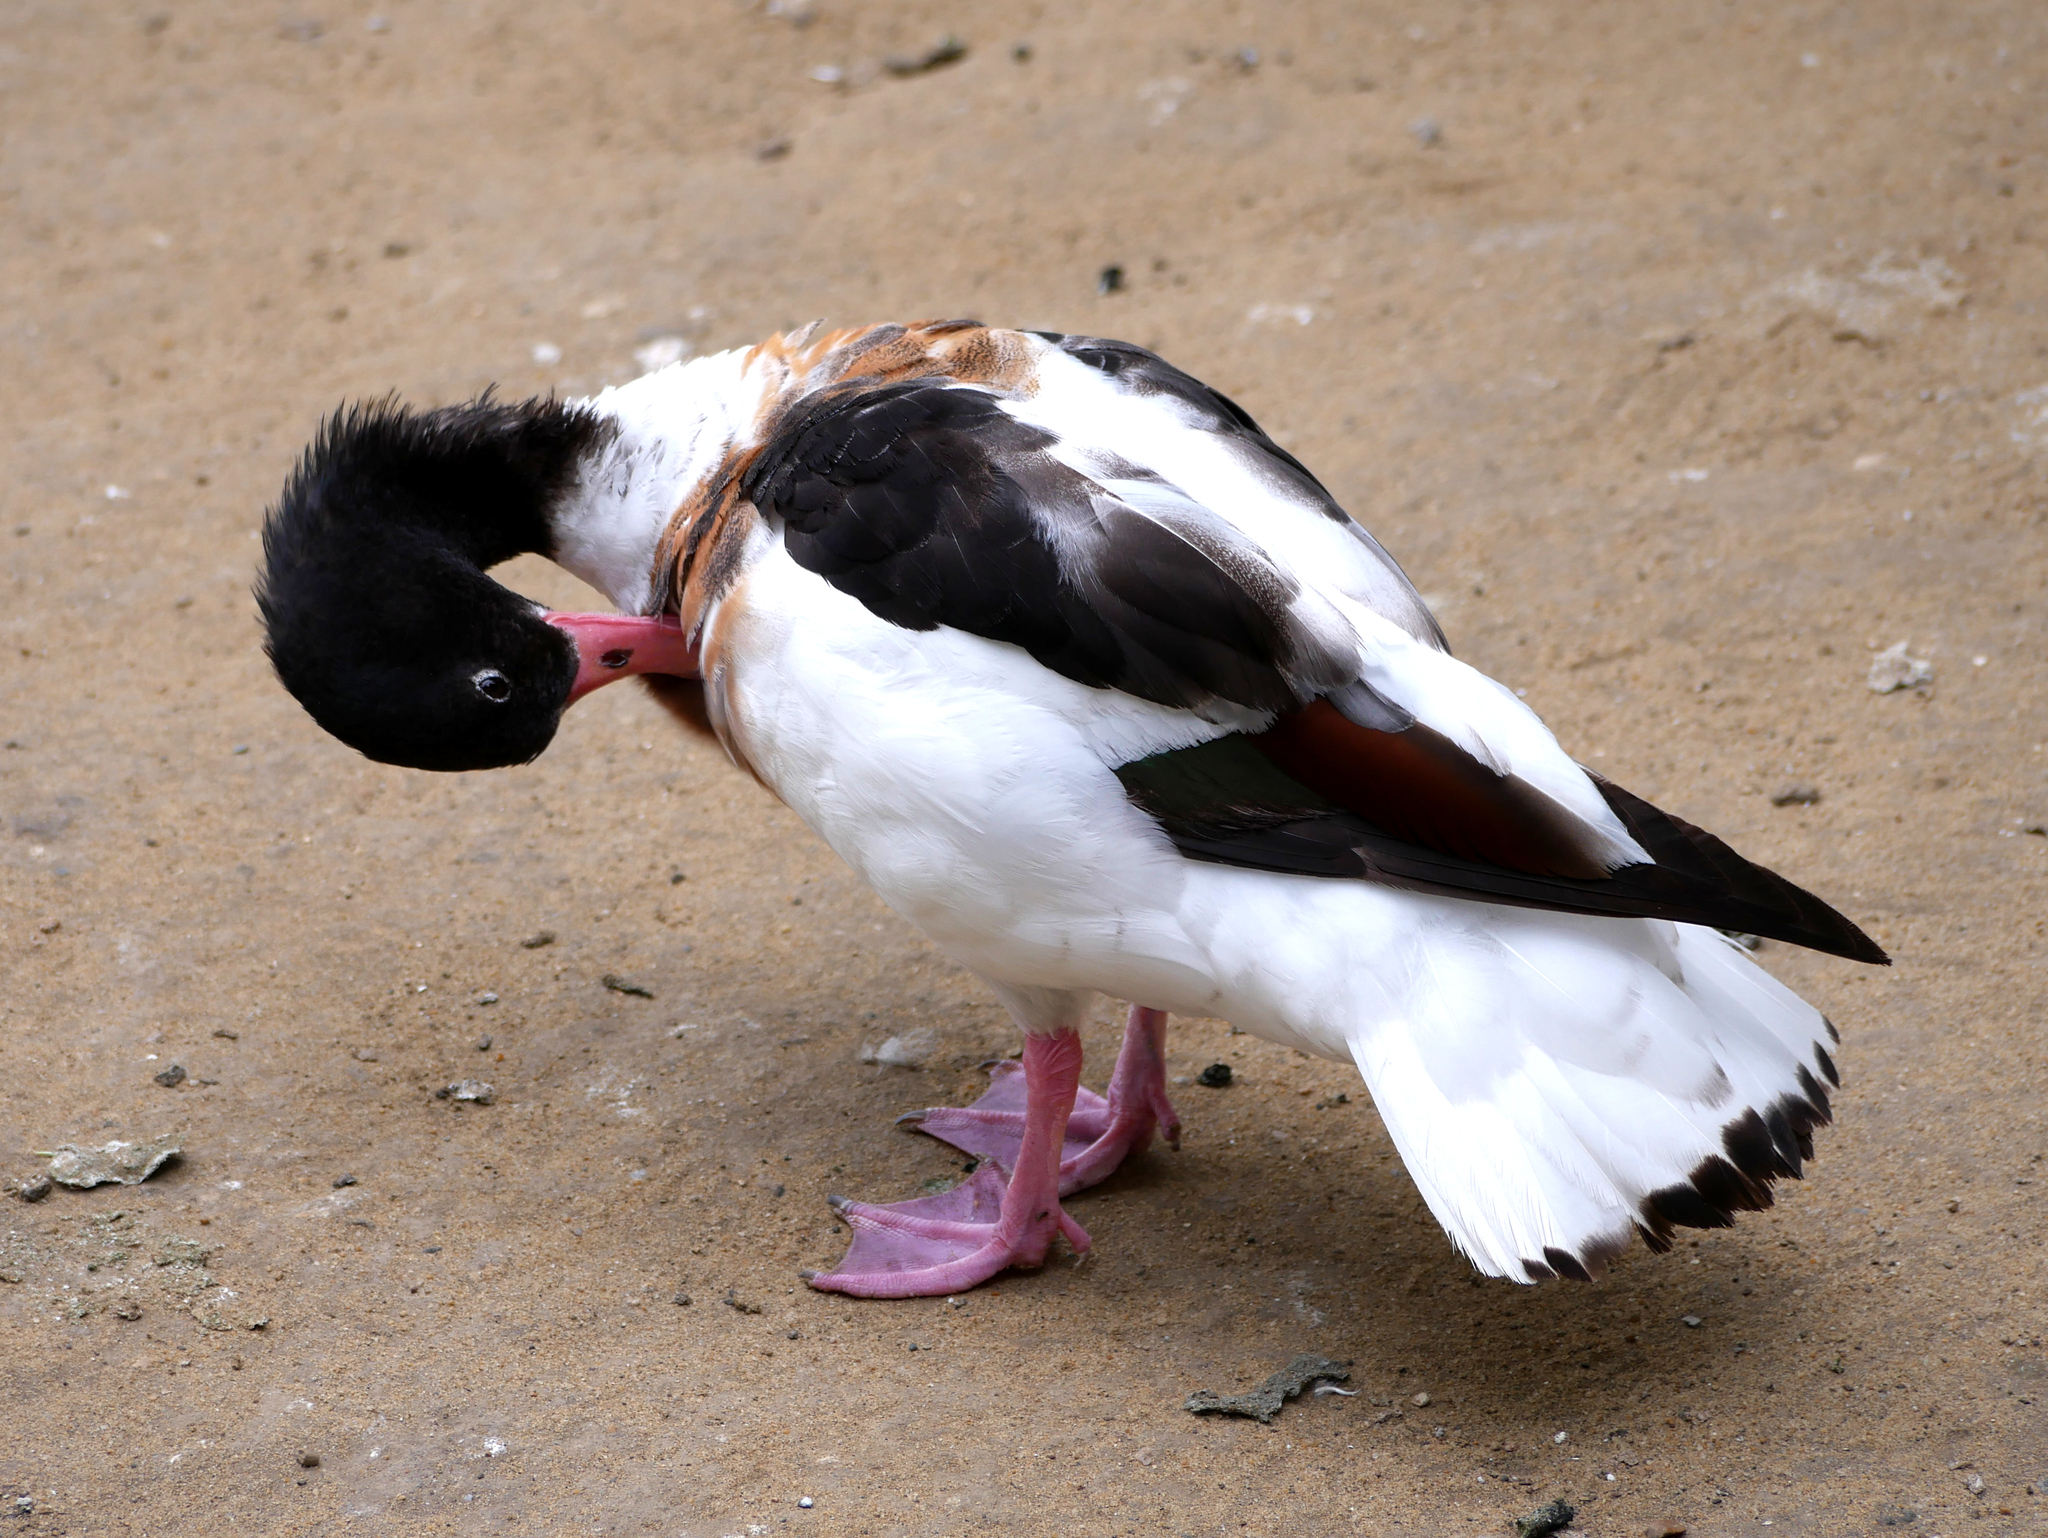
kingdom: Animalia
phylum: Chordata
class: Aves
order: Anseriformes
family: Anatidae
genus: Tadorna
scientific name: Tadorna tadorna
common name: Common shelduck
